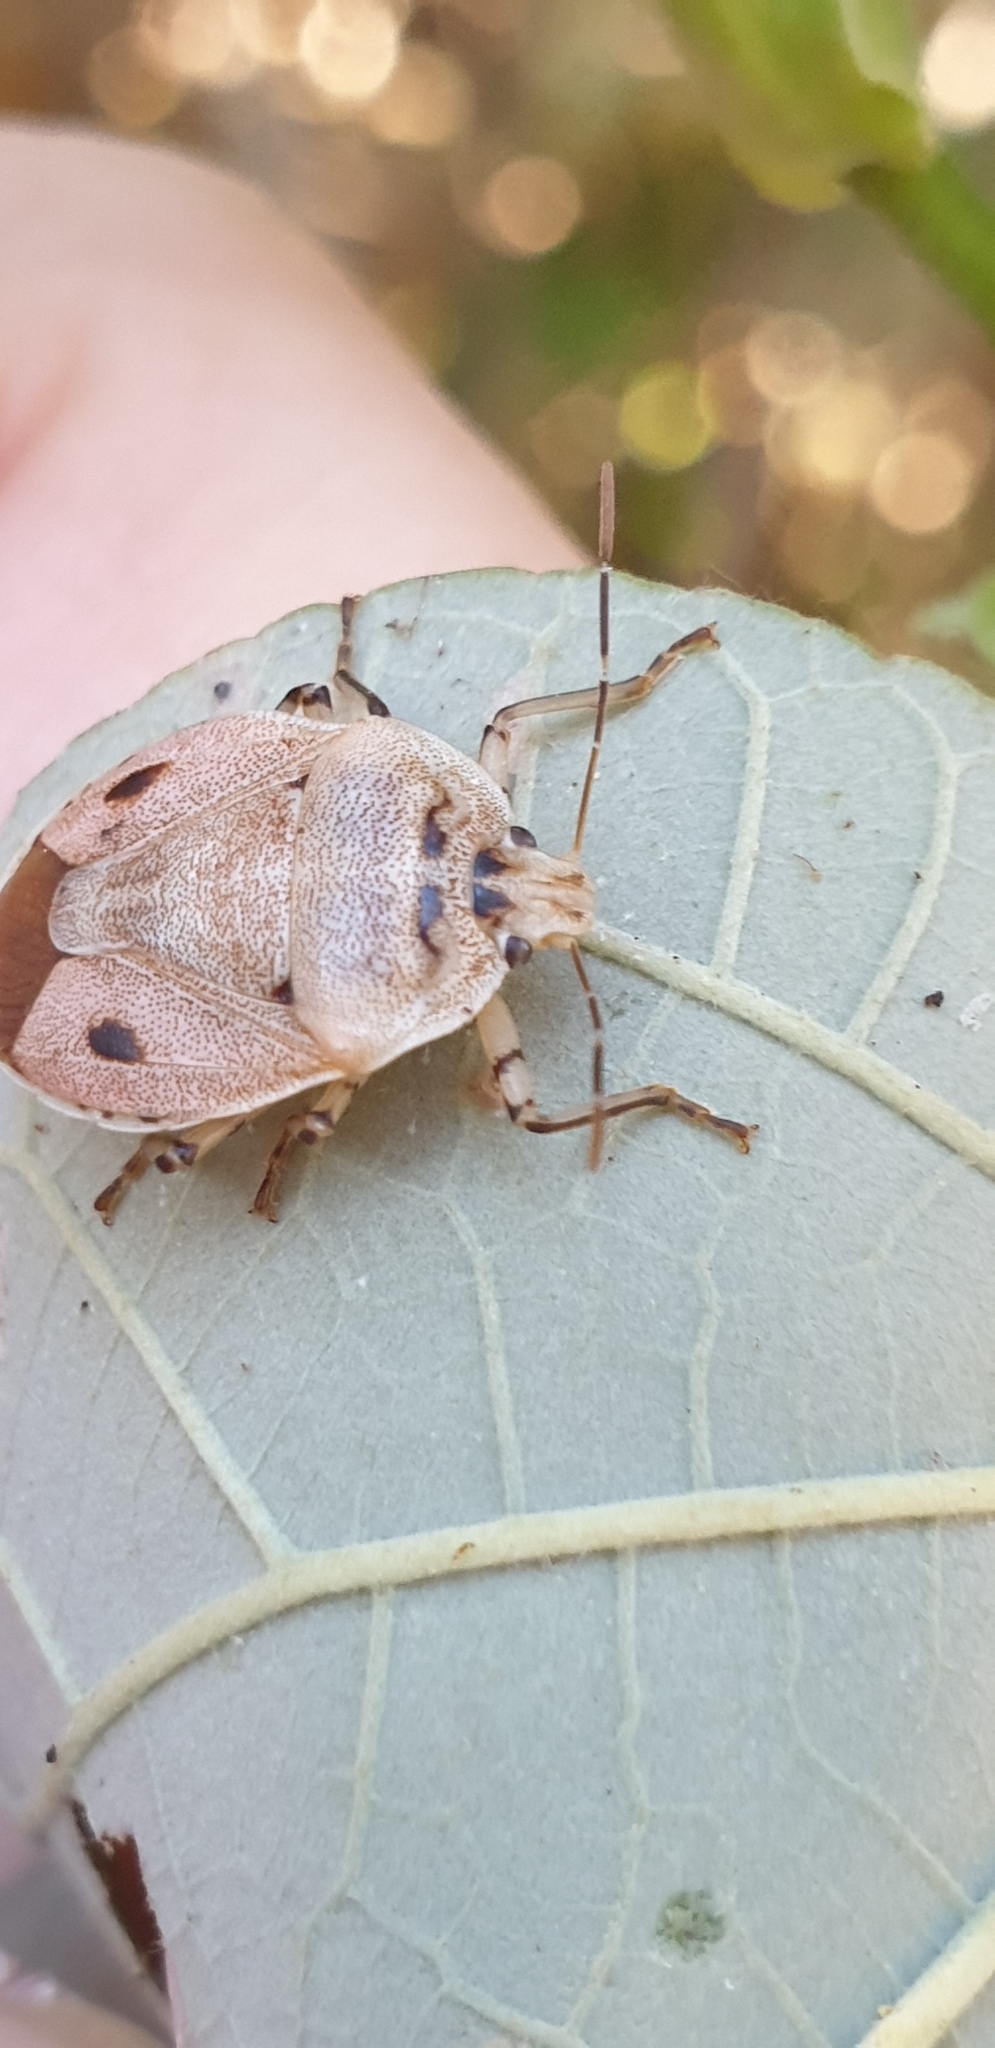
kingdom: Animalia
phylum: Arthropoda
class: Insecta
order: Hemiptera
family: Pentatomidae
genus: Amyotea
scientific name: Amyotea
